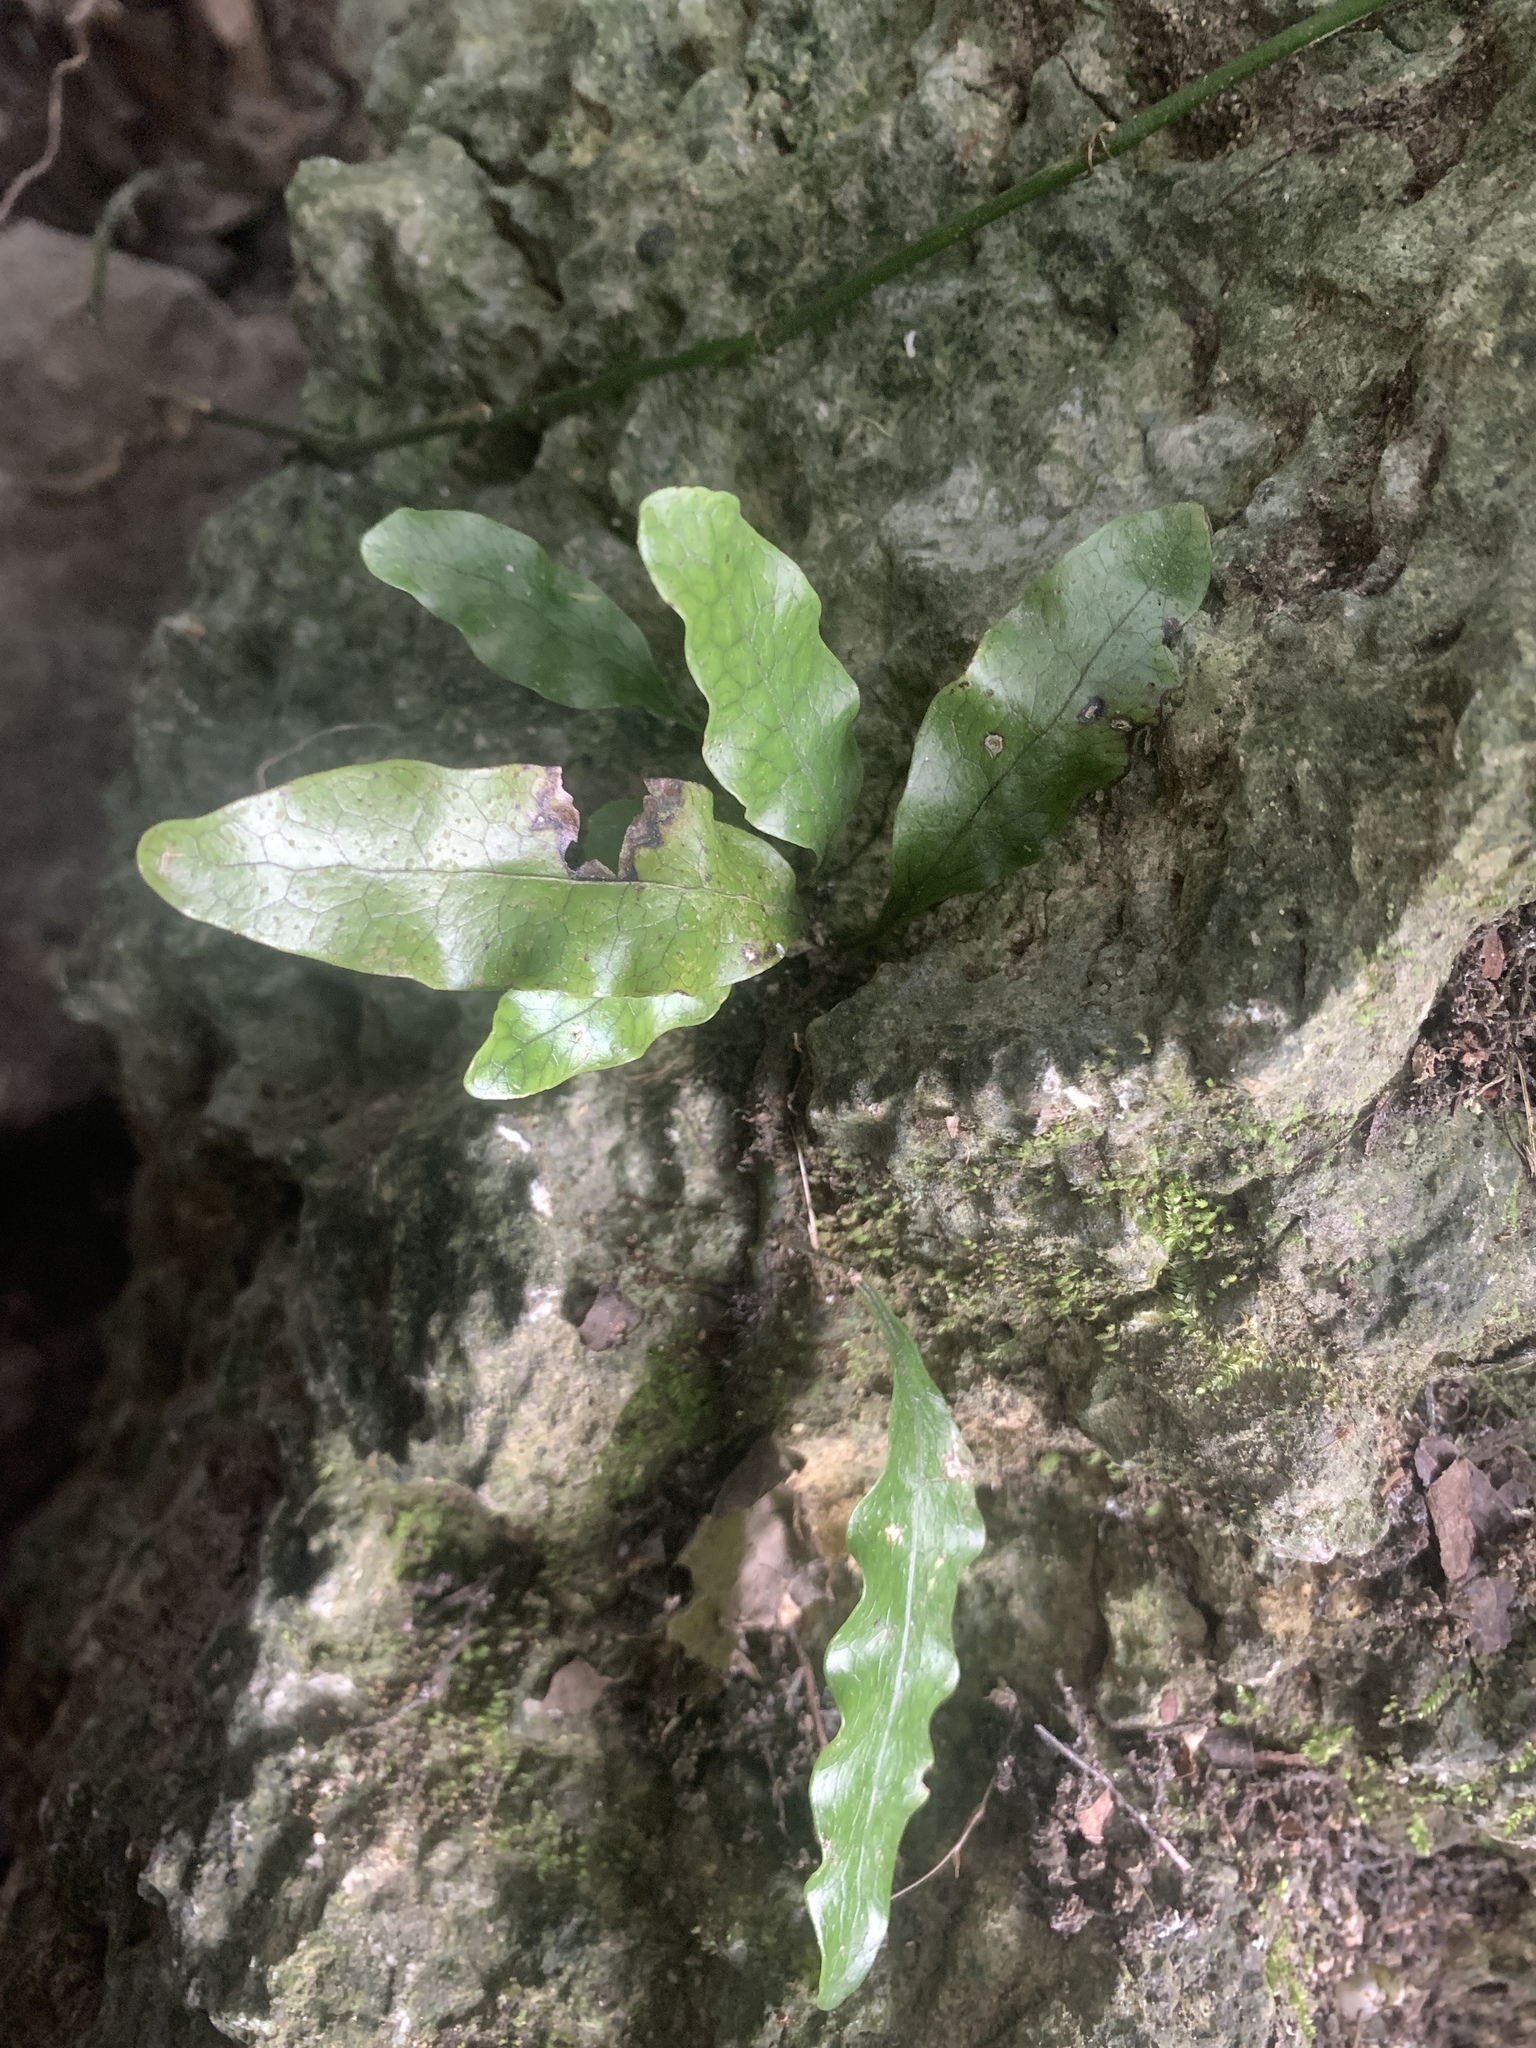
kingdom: Plantae
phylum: Tracheophyta
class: Polypodiopsida
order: Polypodiales
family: Polypodiaceae
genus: Leptochilus
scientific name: Leptochilus ellipticus
